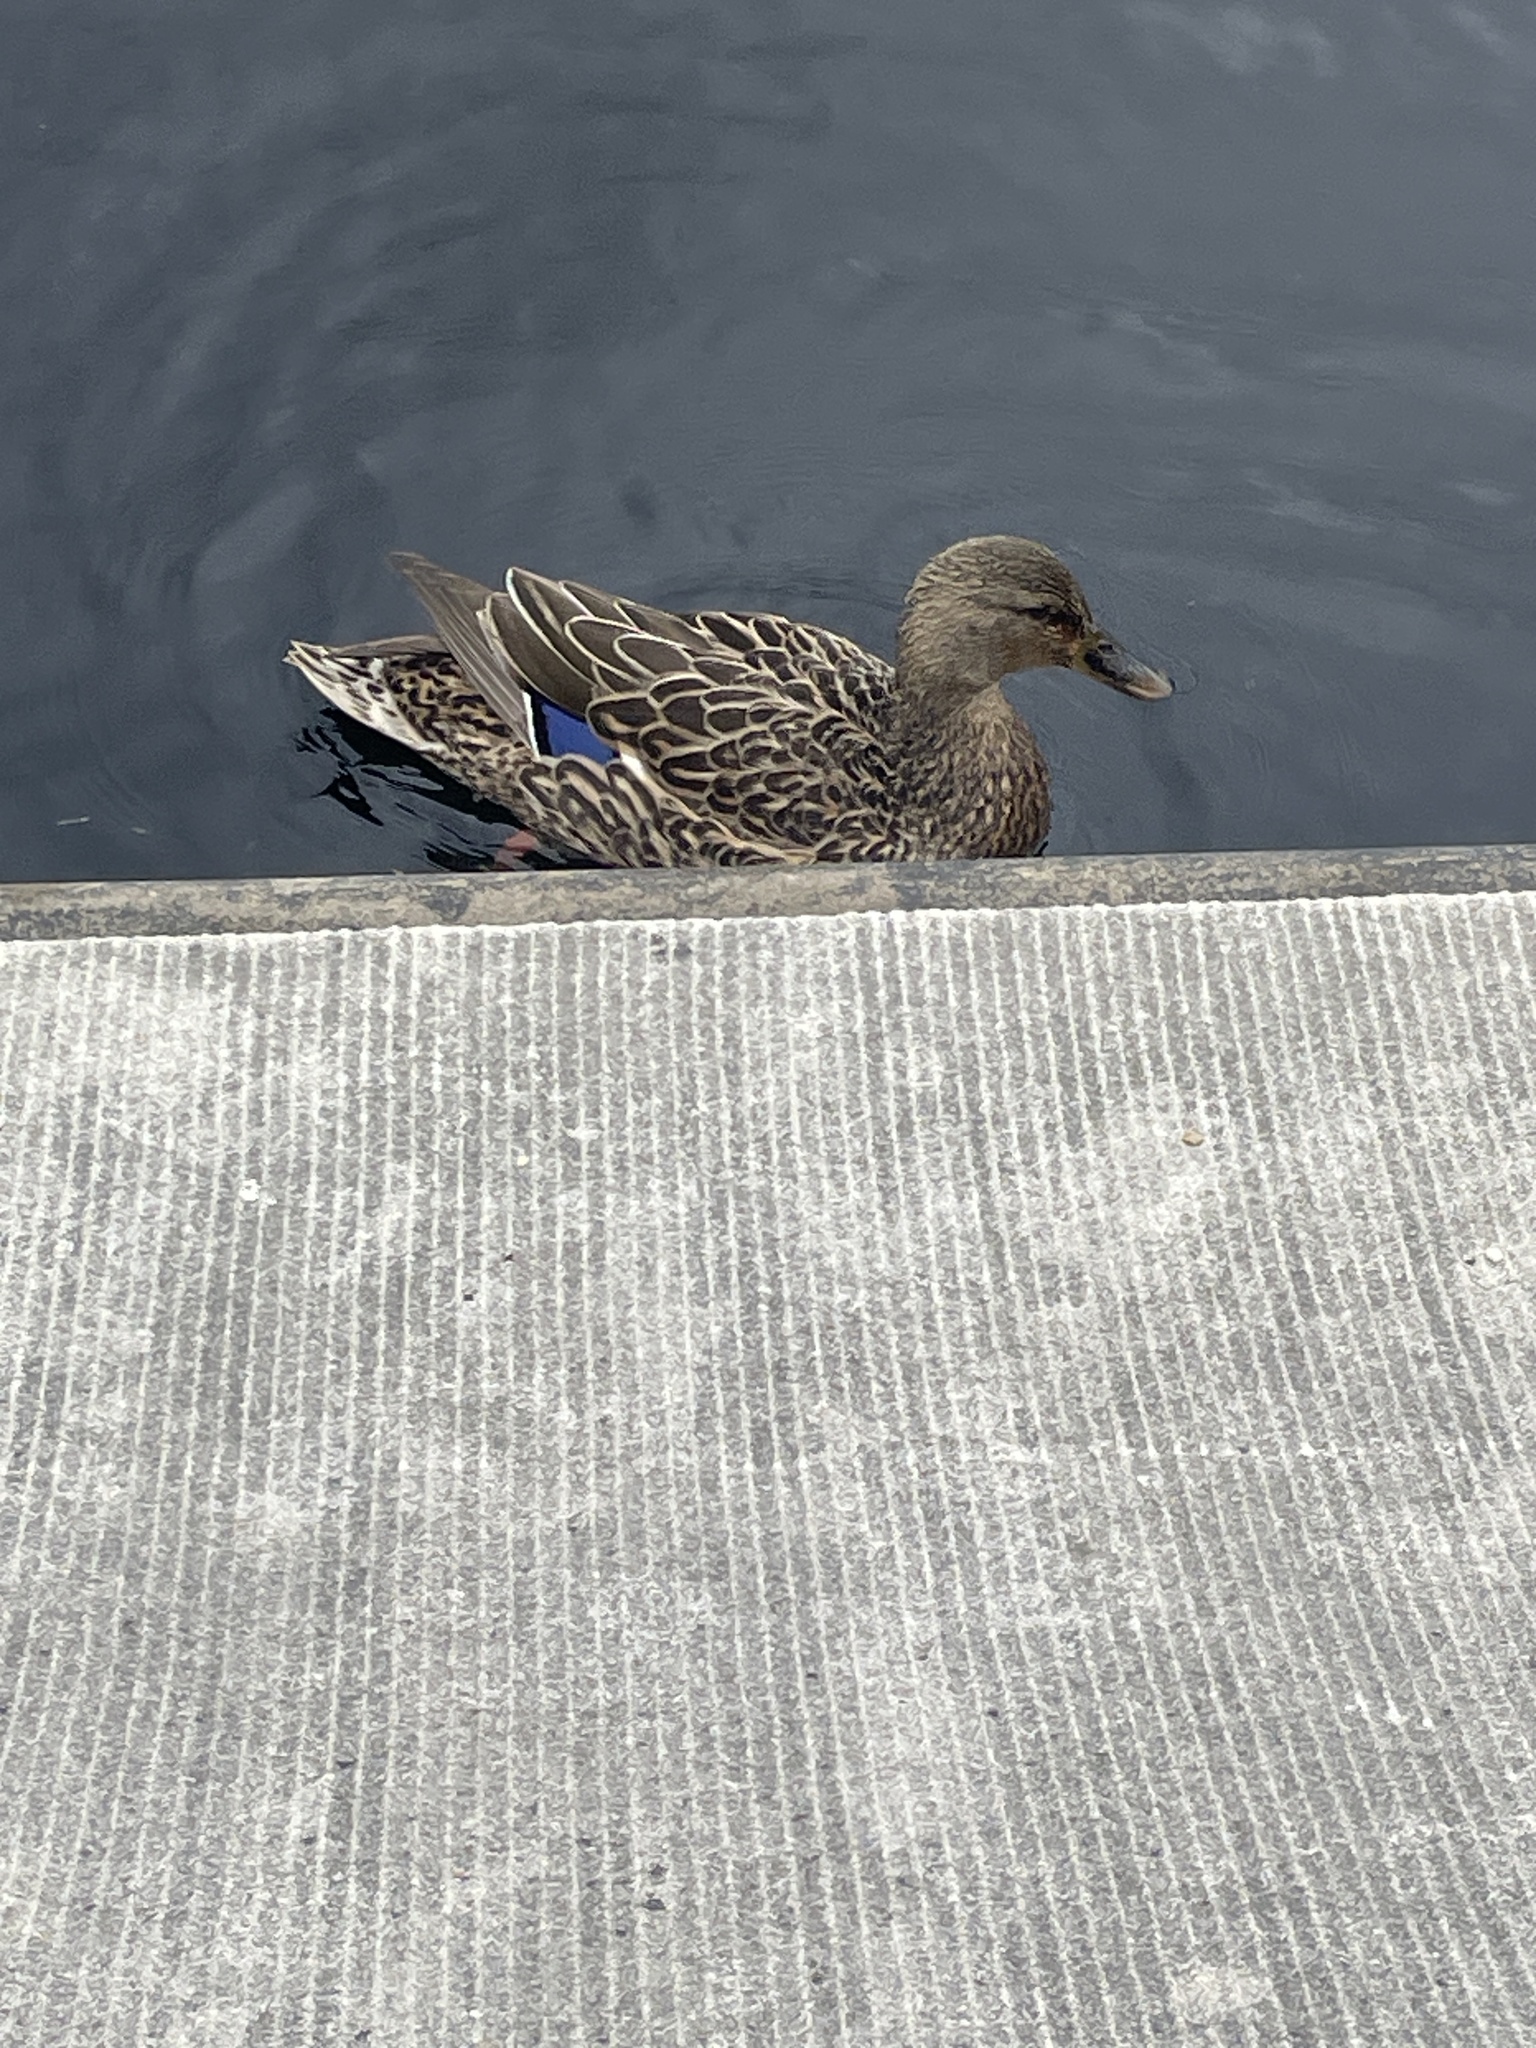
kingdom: Animalia
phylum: Chordata
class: Aves
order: Anseriformes
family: Anatidae
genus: Anas
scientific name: Anas platyrhynchos
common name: Mallard
